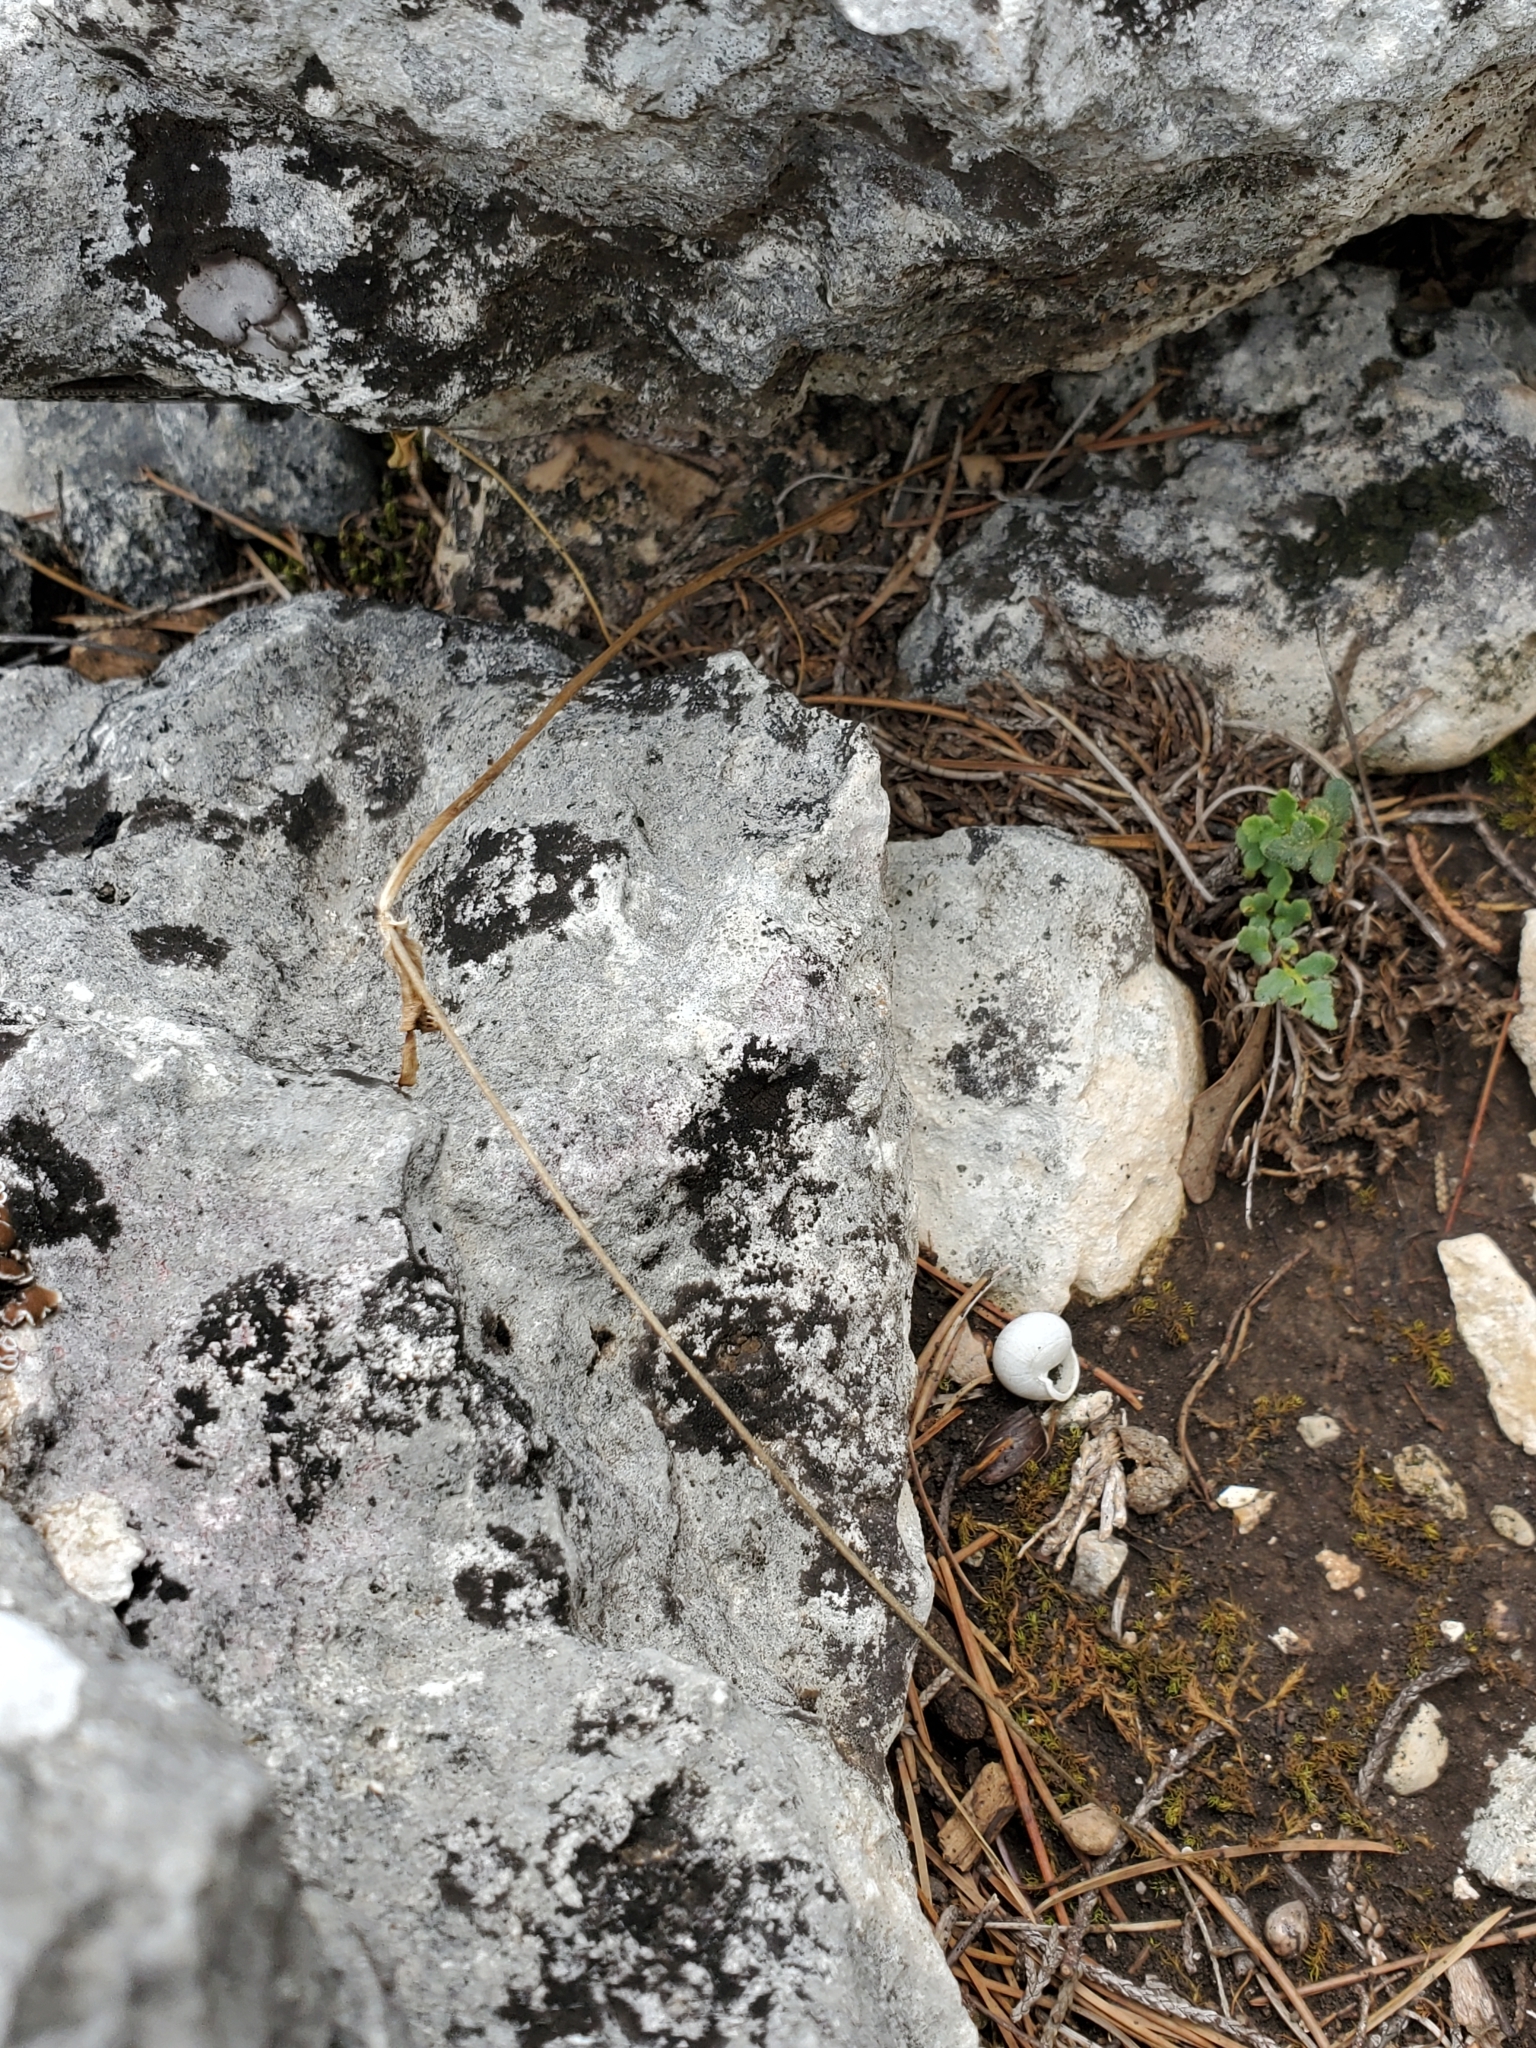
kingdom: Plantae
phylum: Tracheophyta
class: Magnoliopsida
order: Ranunculales
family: Ranunculaceae
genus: Anemone
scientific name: Anemone edwardsiana
